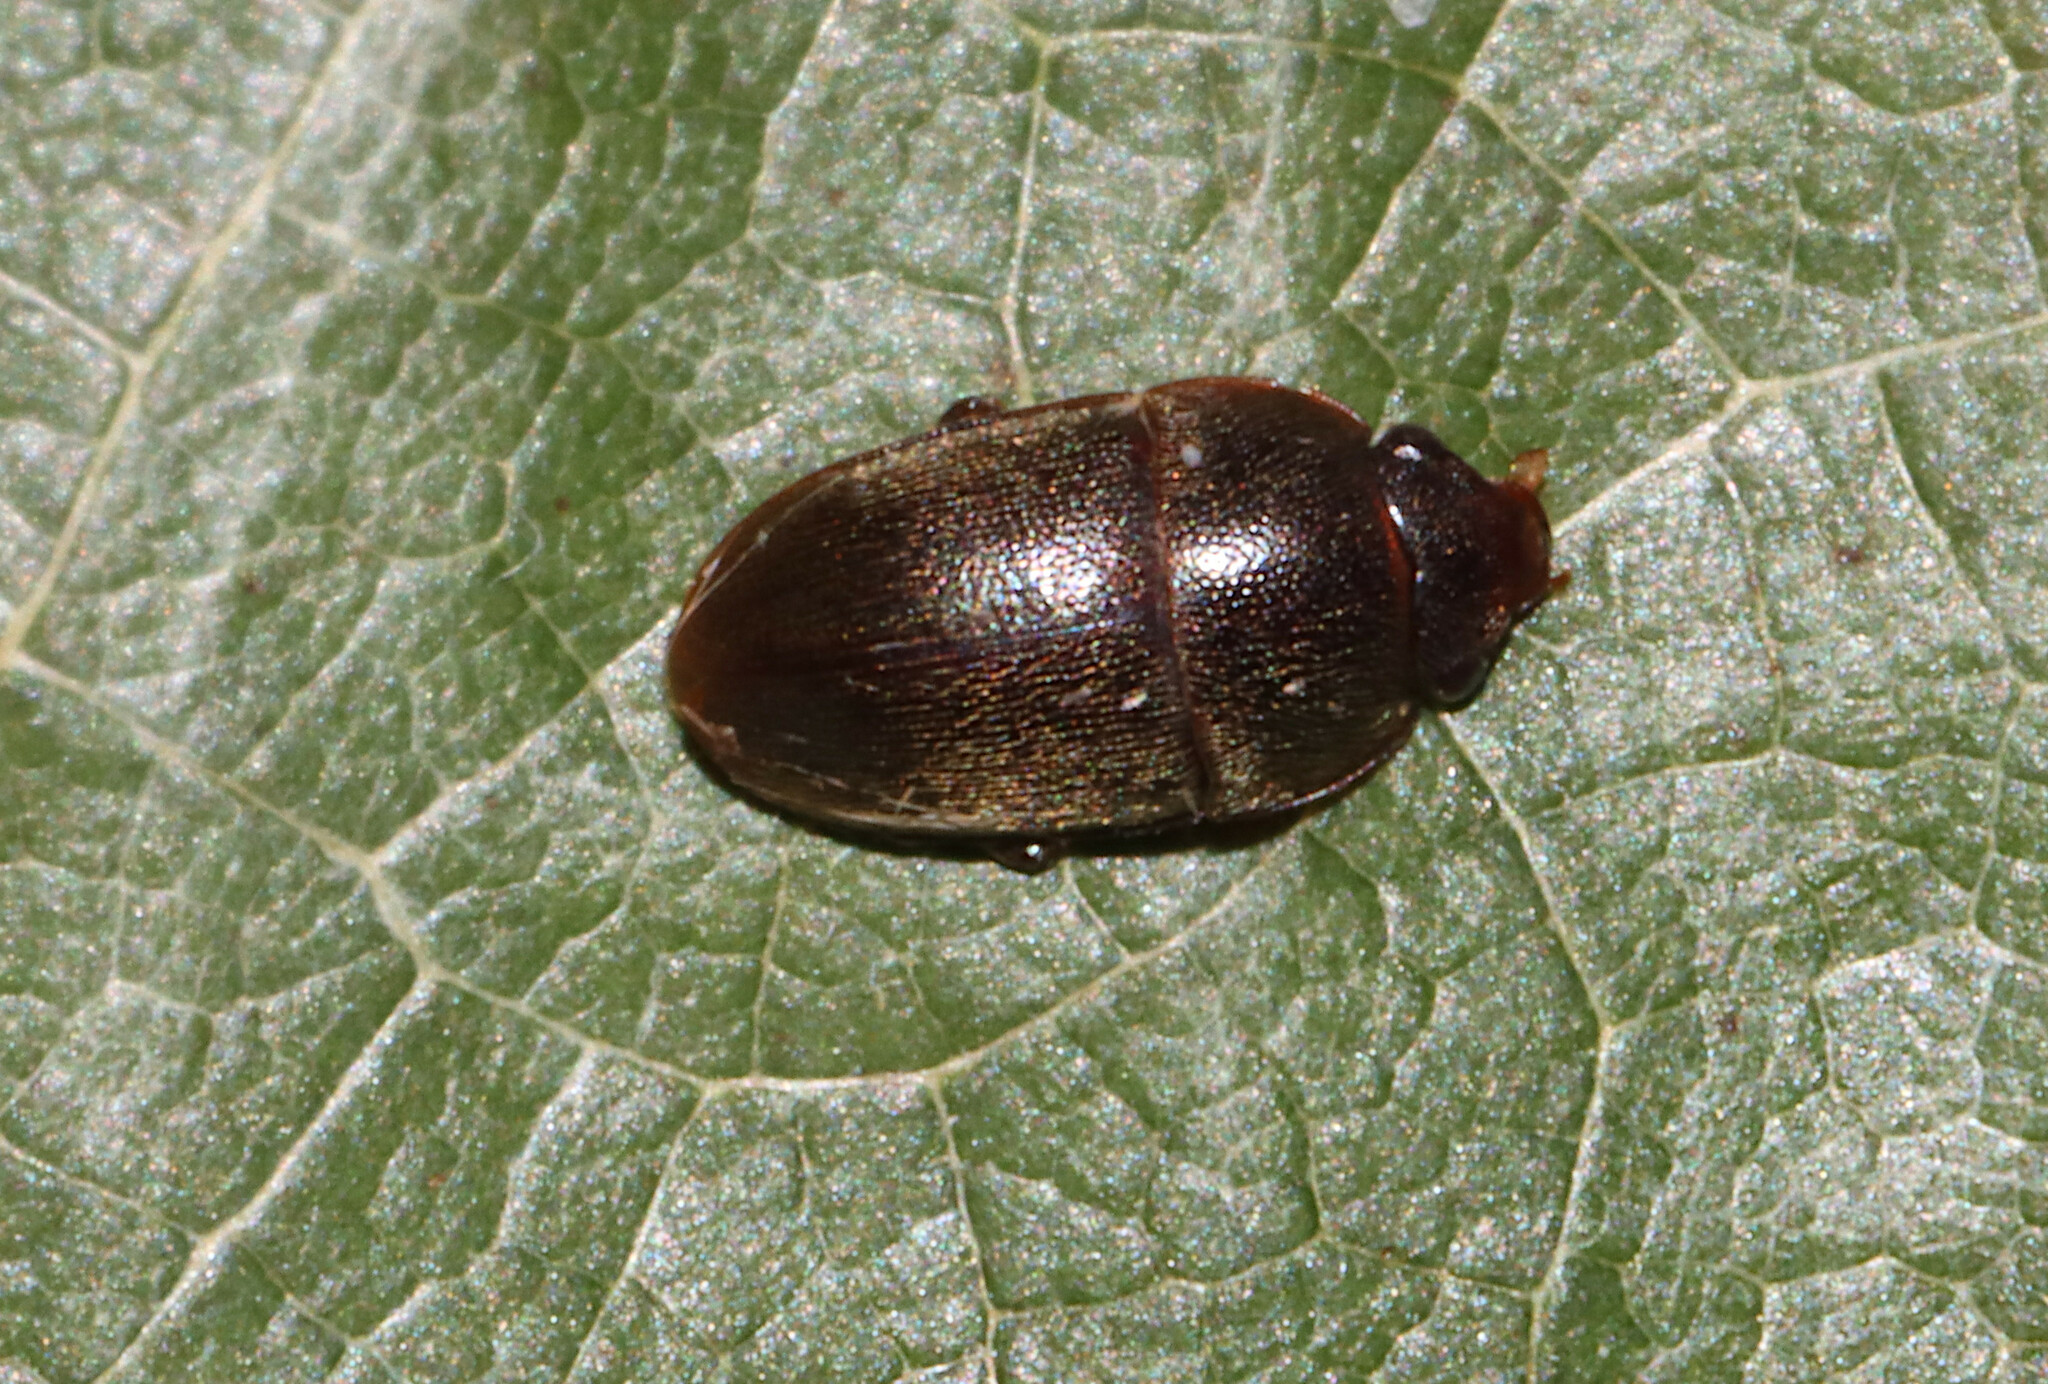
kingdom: Animalia
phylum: Arthropoda
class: Insecta
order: Coleoptera
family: Nitidulidae
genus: Cryptarcha
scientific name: Cryptarcha ampla
